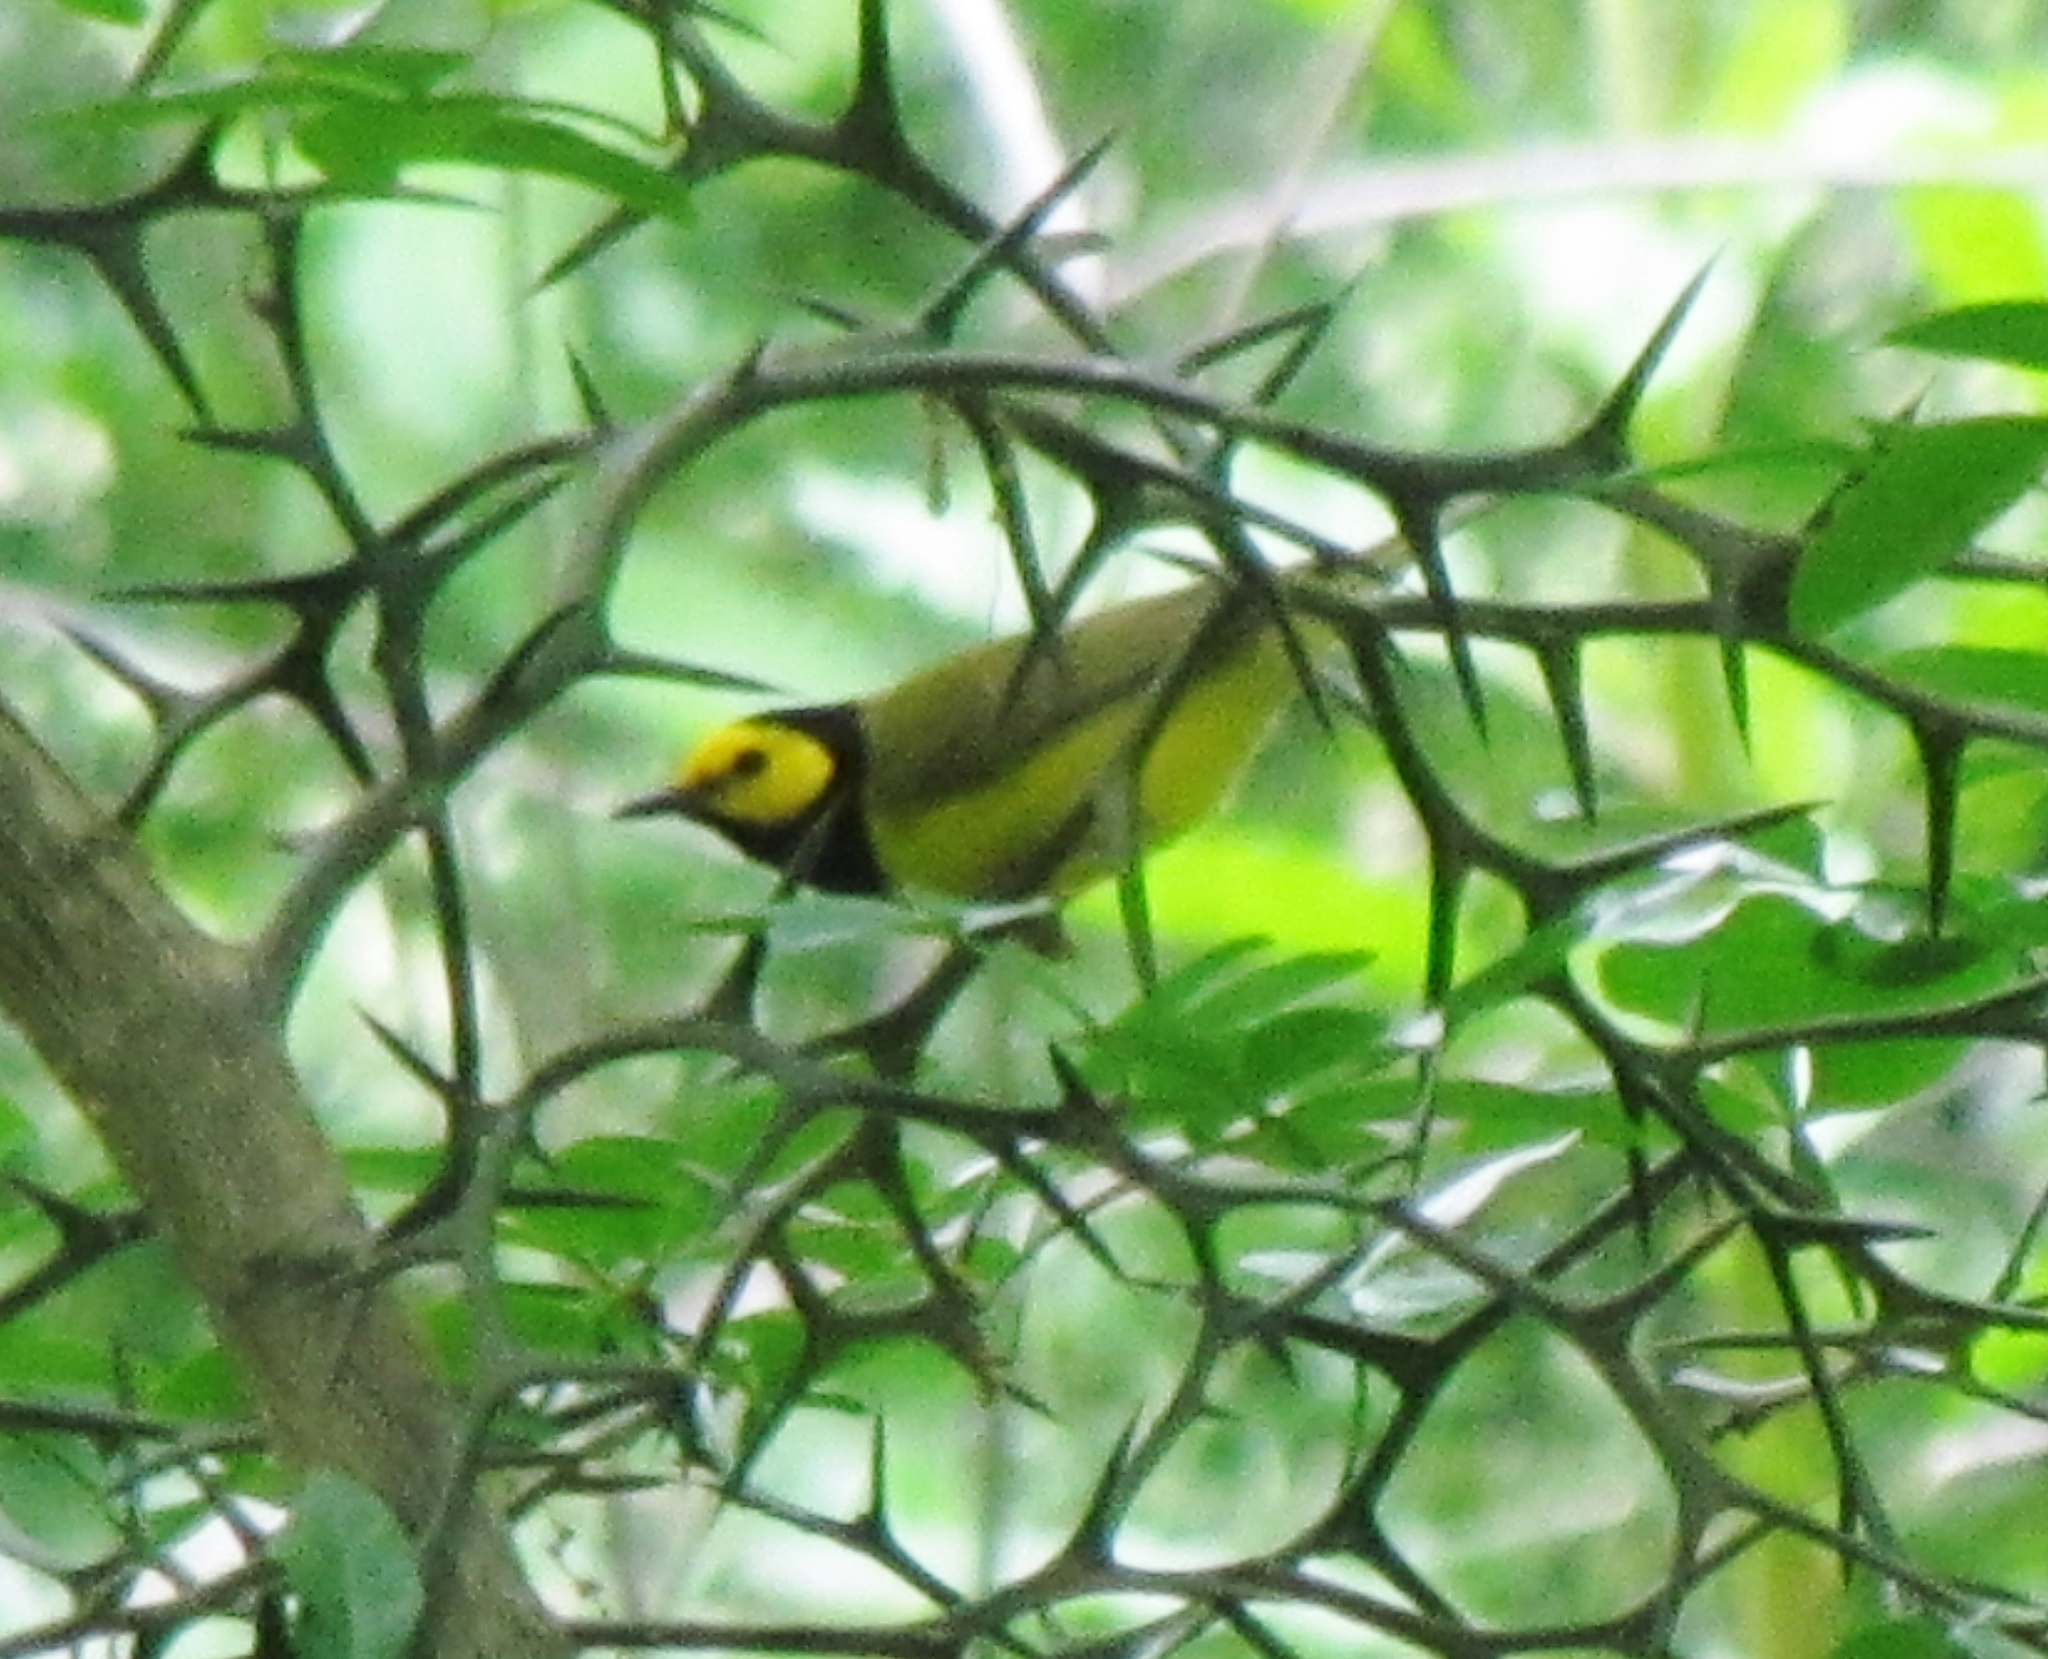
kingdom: Animalia
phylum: Chordata
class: Aves
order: Passeriformes
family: Parulidae
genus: Setophaga
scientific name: Setophaga citrina
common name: Hooded warbler
